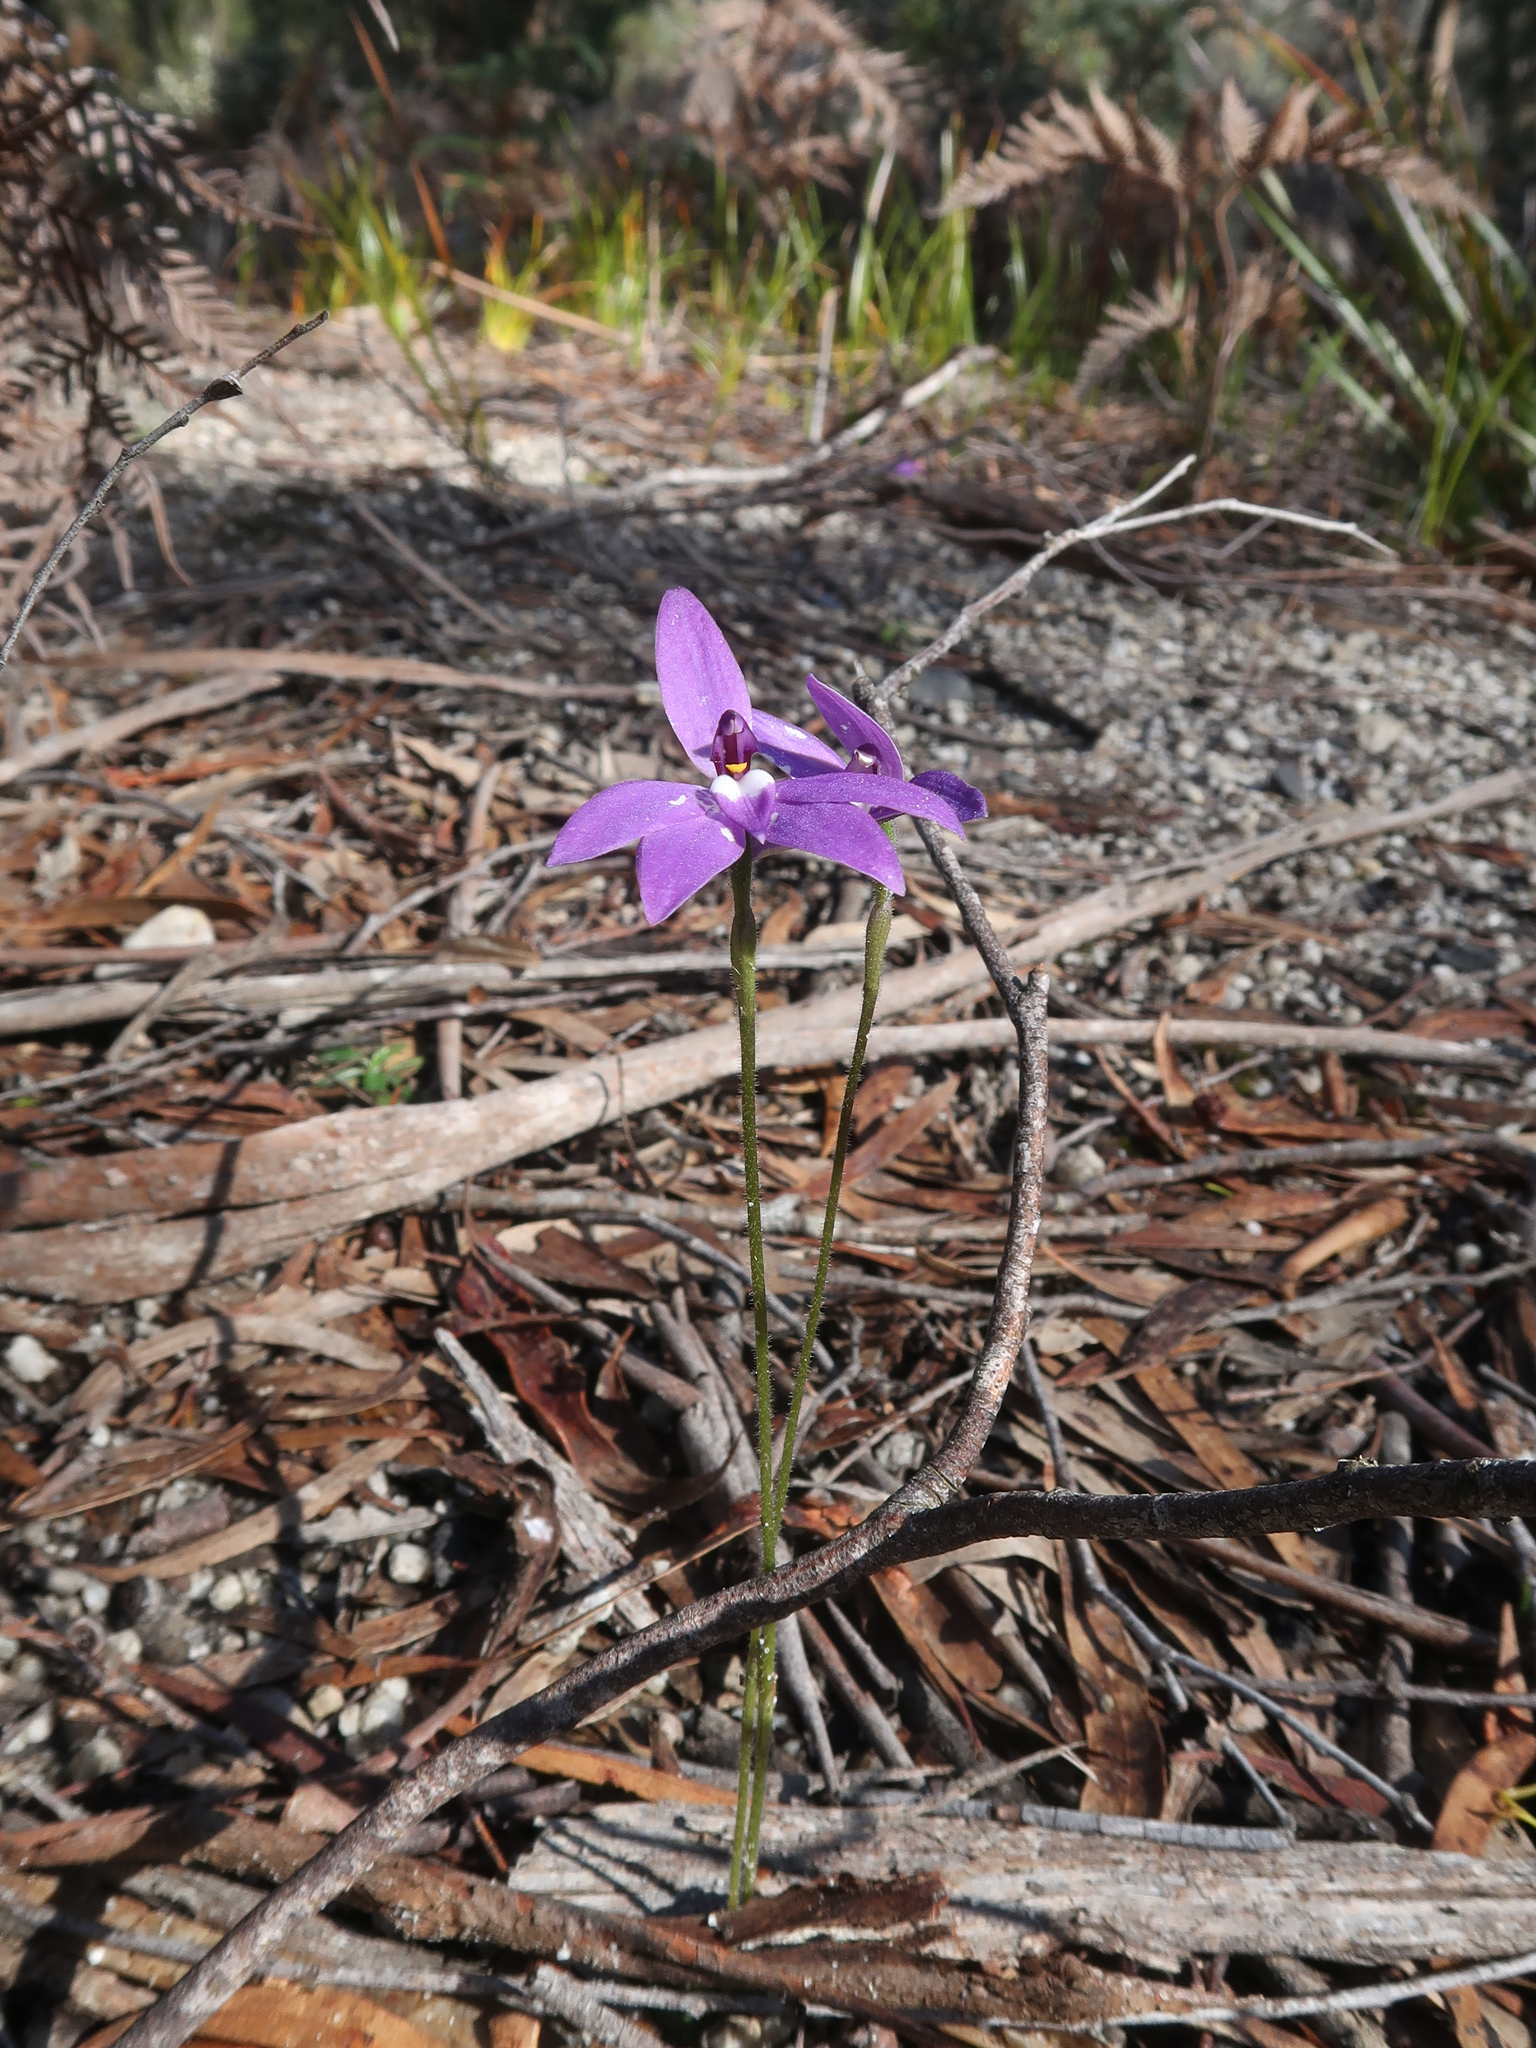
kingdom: Plantae
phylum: Tracheophyta
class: Liliopsida
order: Asparagales
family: Orchidaceae
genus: Caladenia
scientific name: Caladenia major
